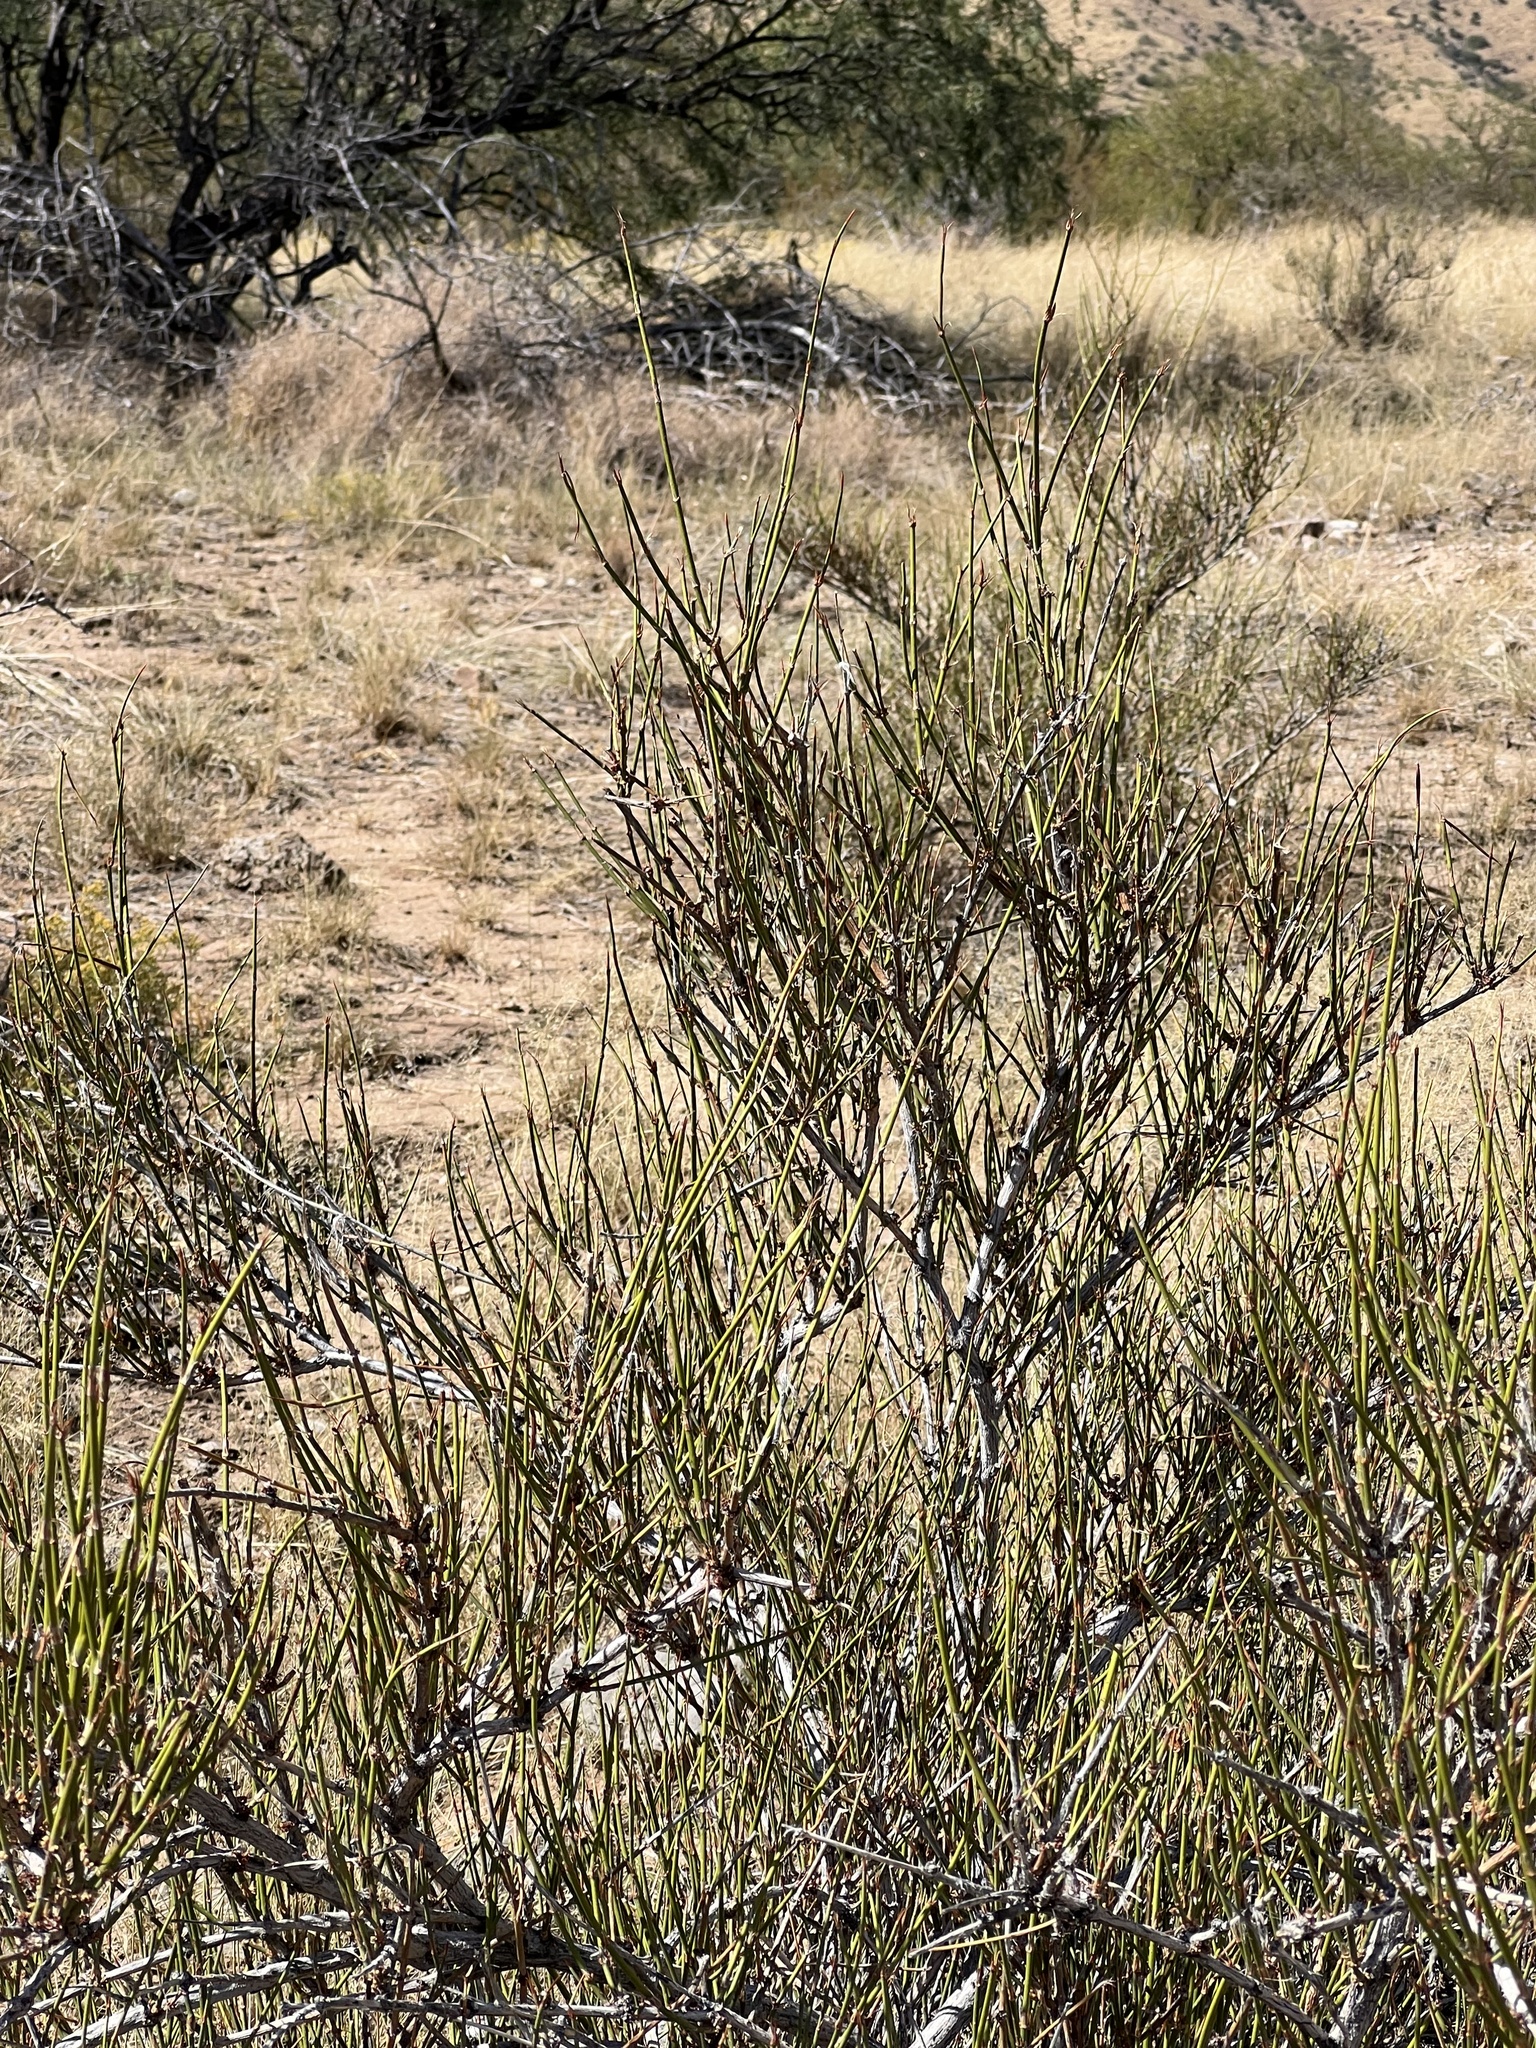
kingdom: Plantae
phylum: Tracheophyta
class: Gnetopsida
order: Ephedrales
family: Ephedraceae
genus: Ephedra
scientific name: Ephedra trifurca
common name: Mexican-tea
